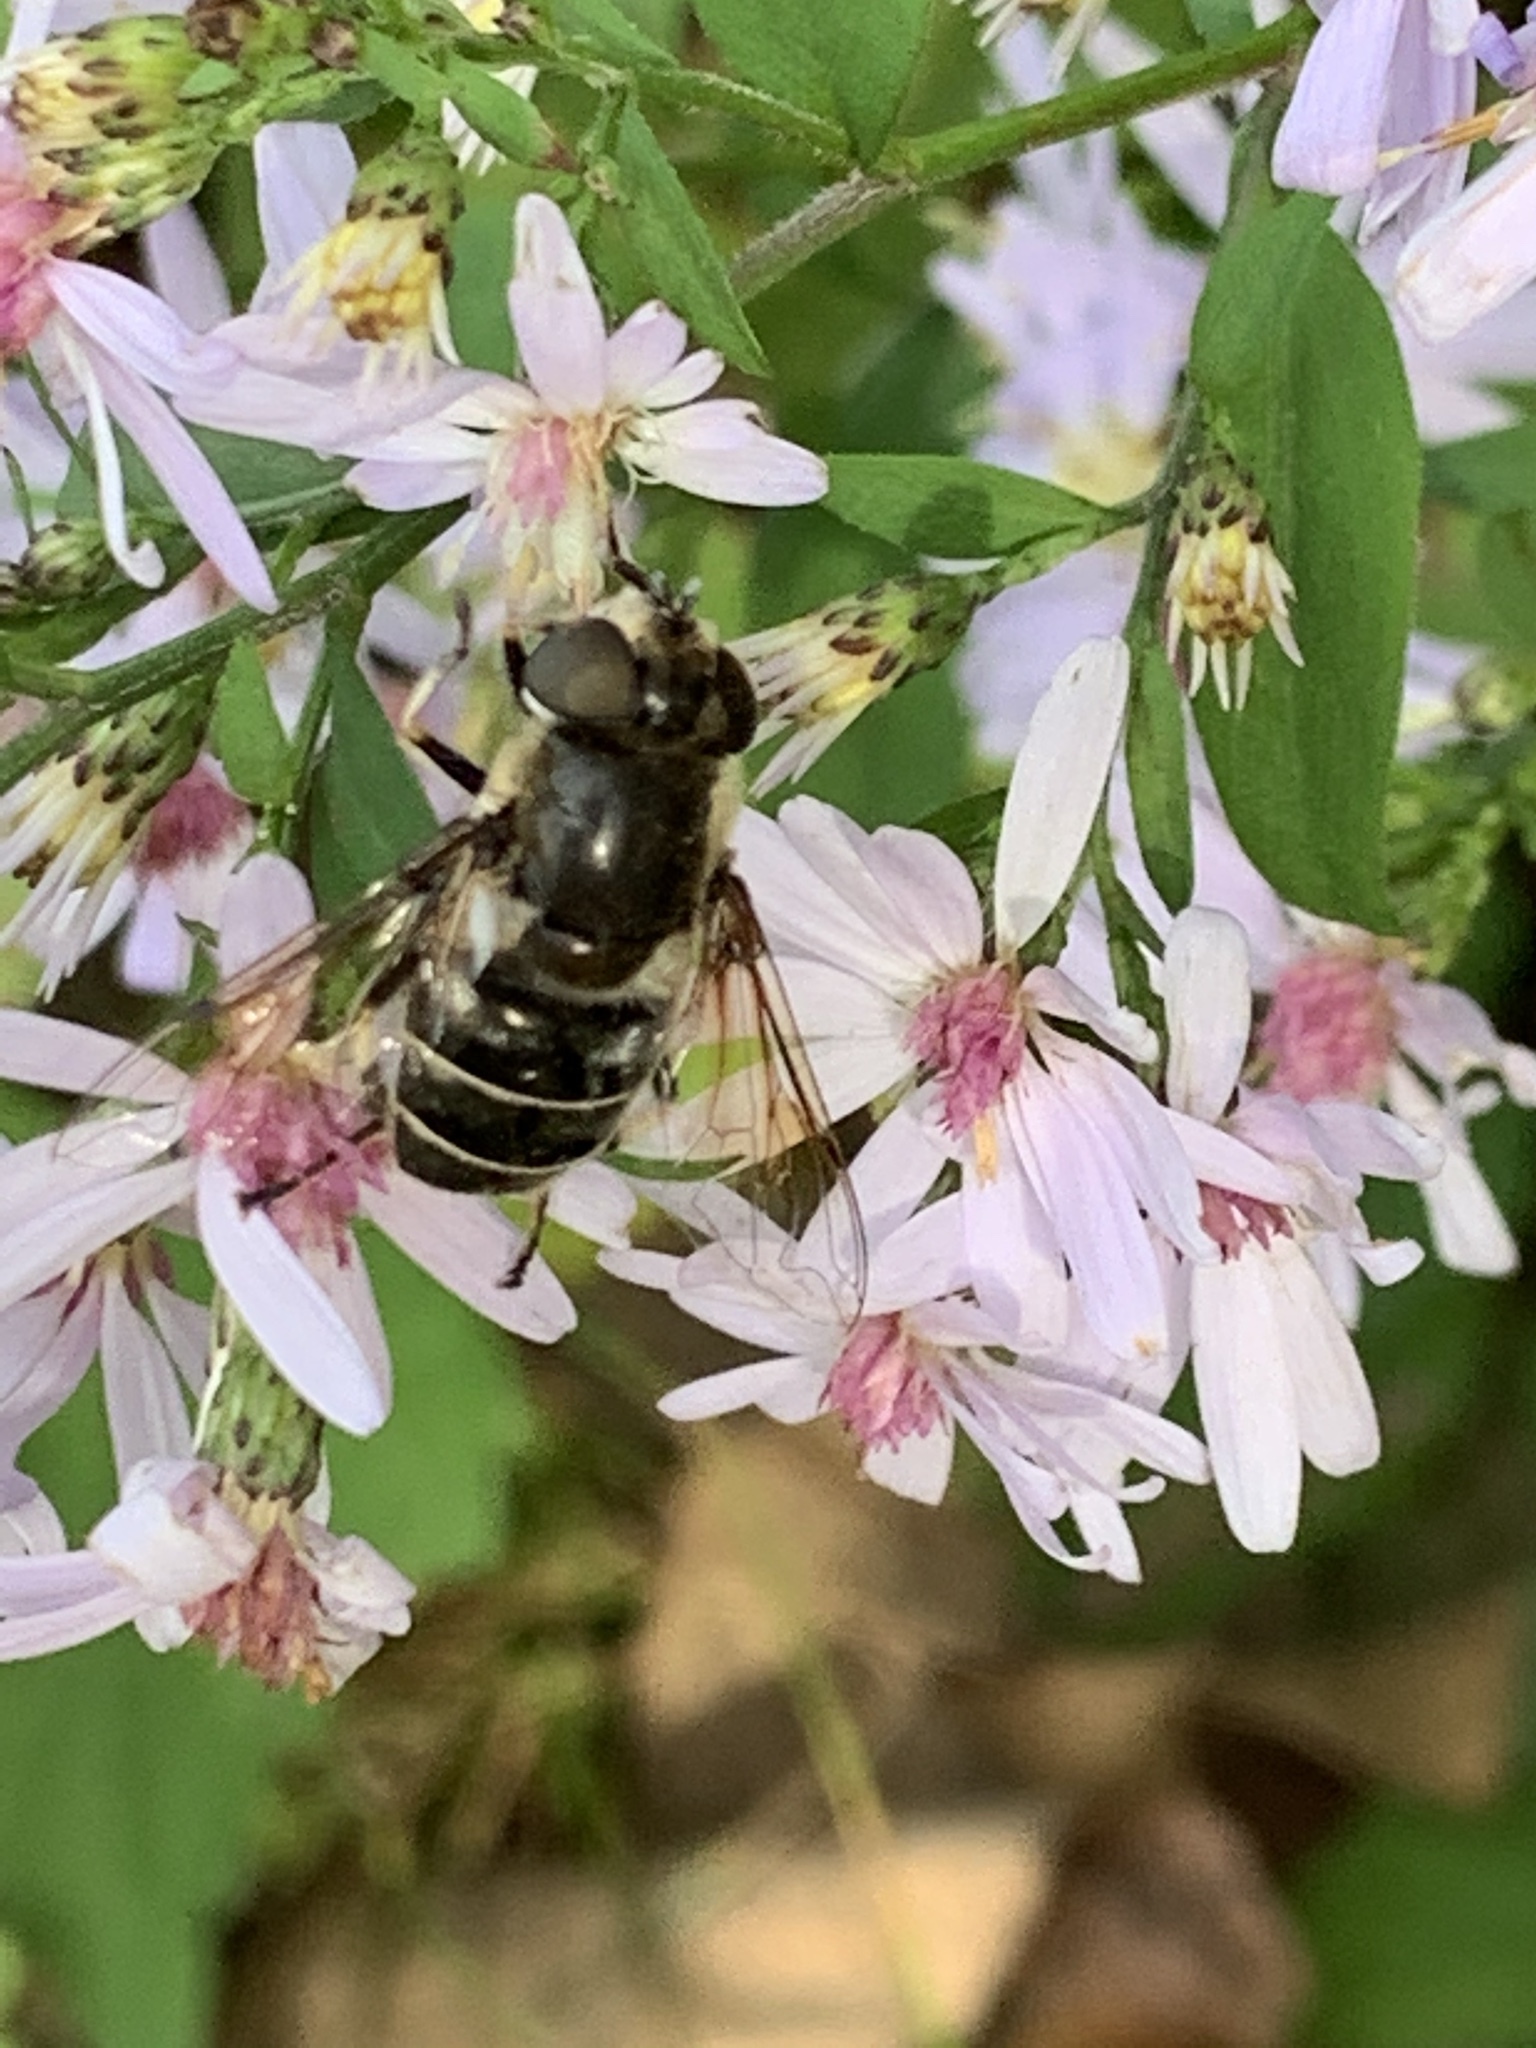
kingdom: Animalia
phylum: Arthropoda
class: Insecta
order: Diptera
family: Syrphidae
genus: Eristalis
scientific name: Eristalis dimidiata
